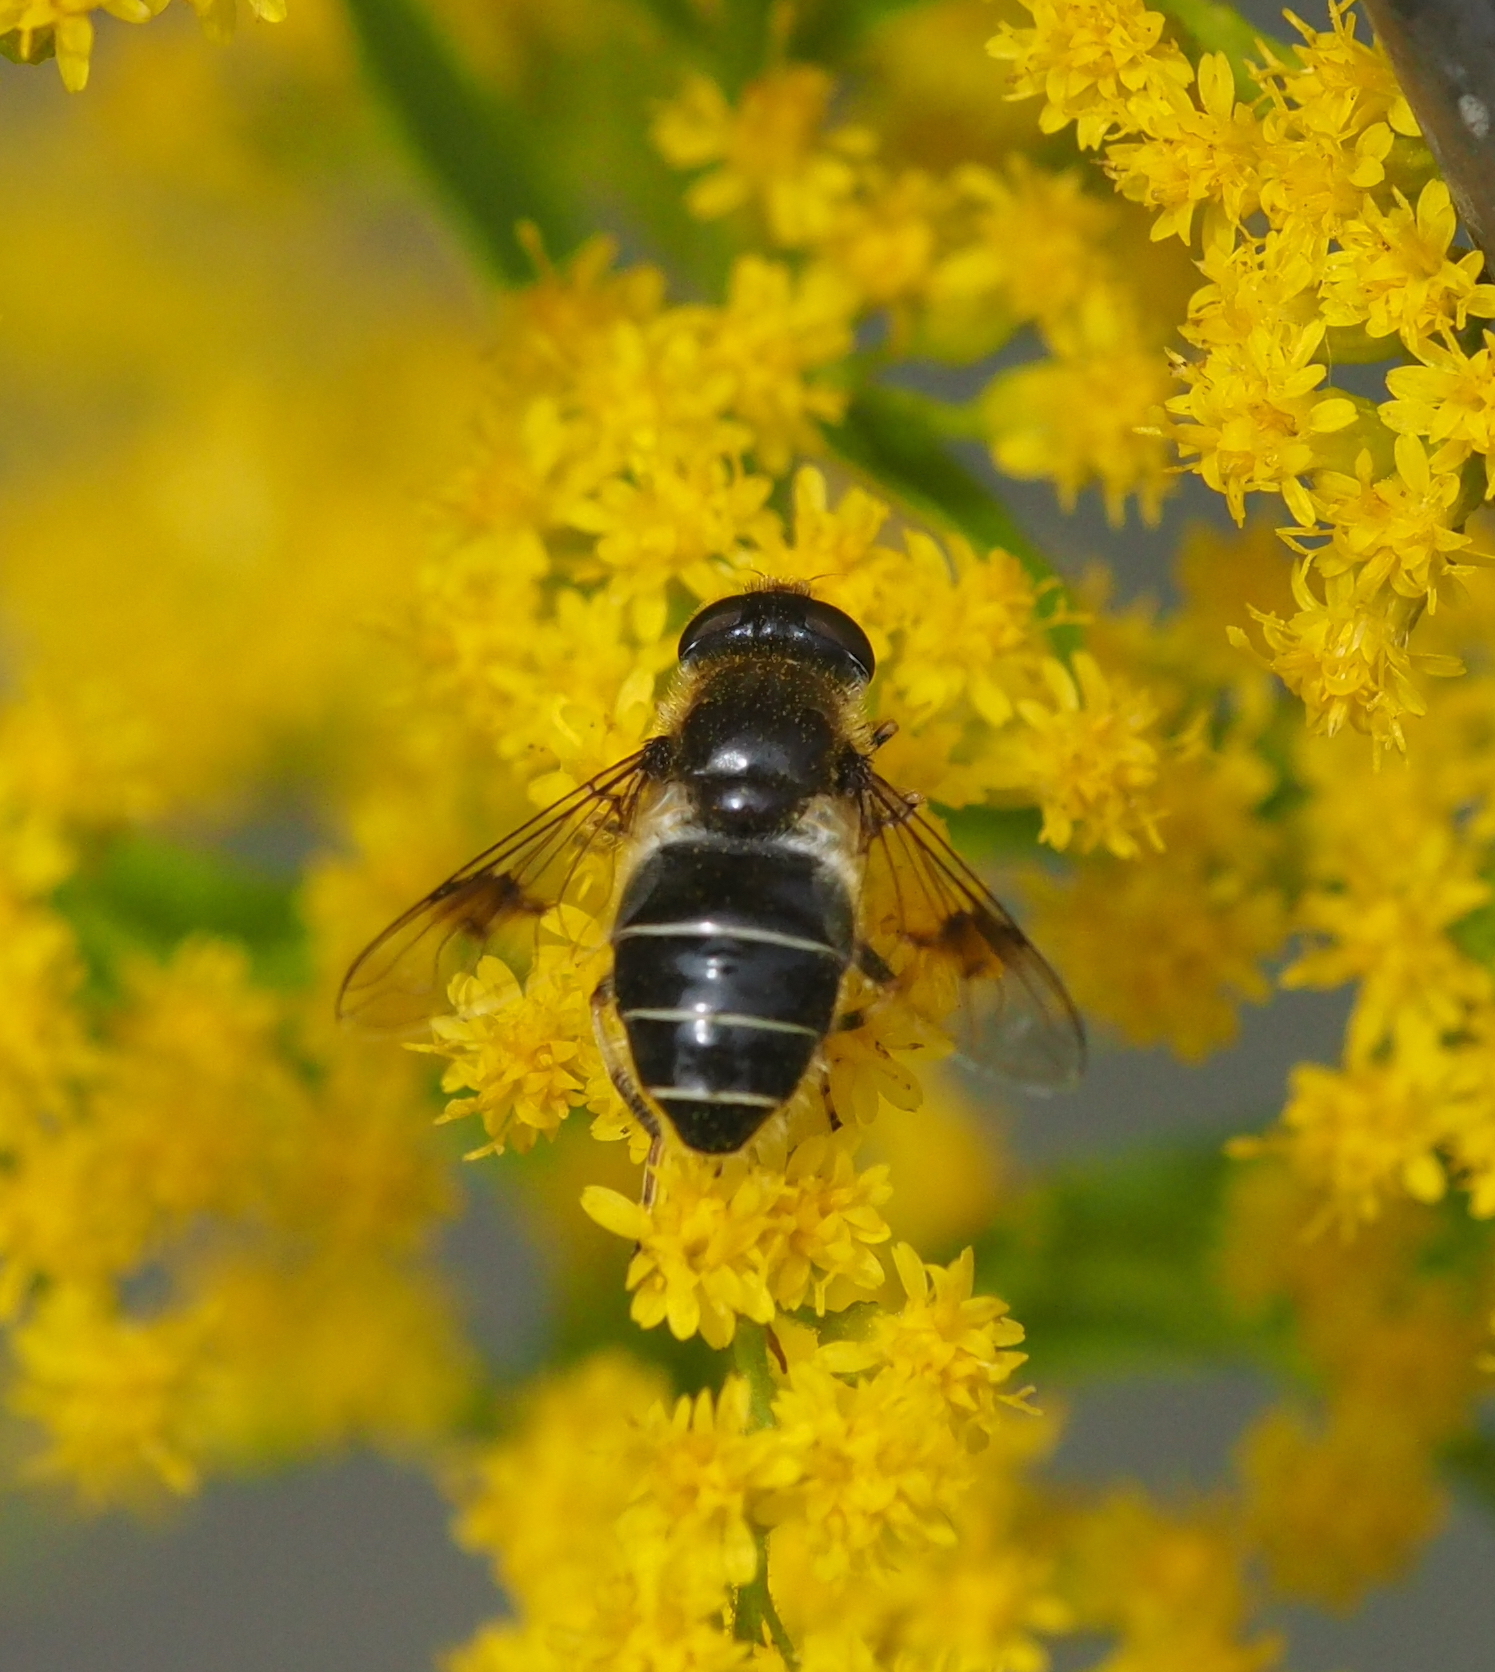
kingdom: Animalia
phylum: Arthropoda
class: Insecta
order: Diptera
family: Syrphidae
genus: Eristalis
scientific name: Eristalis rupium
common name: Hover fly
